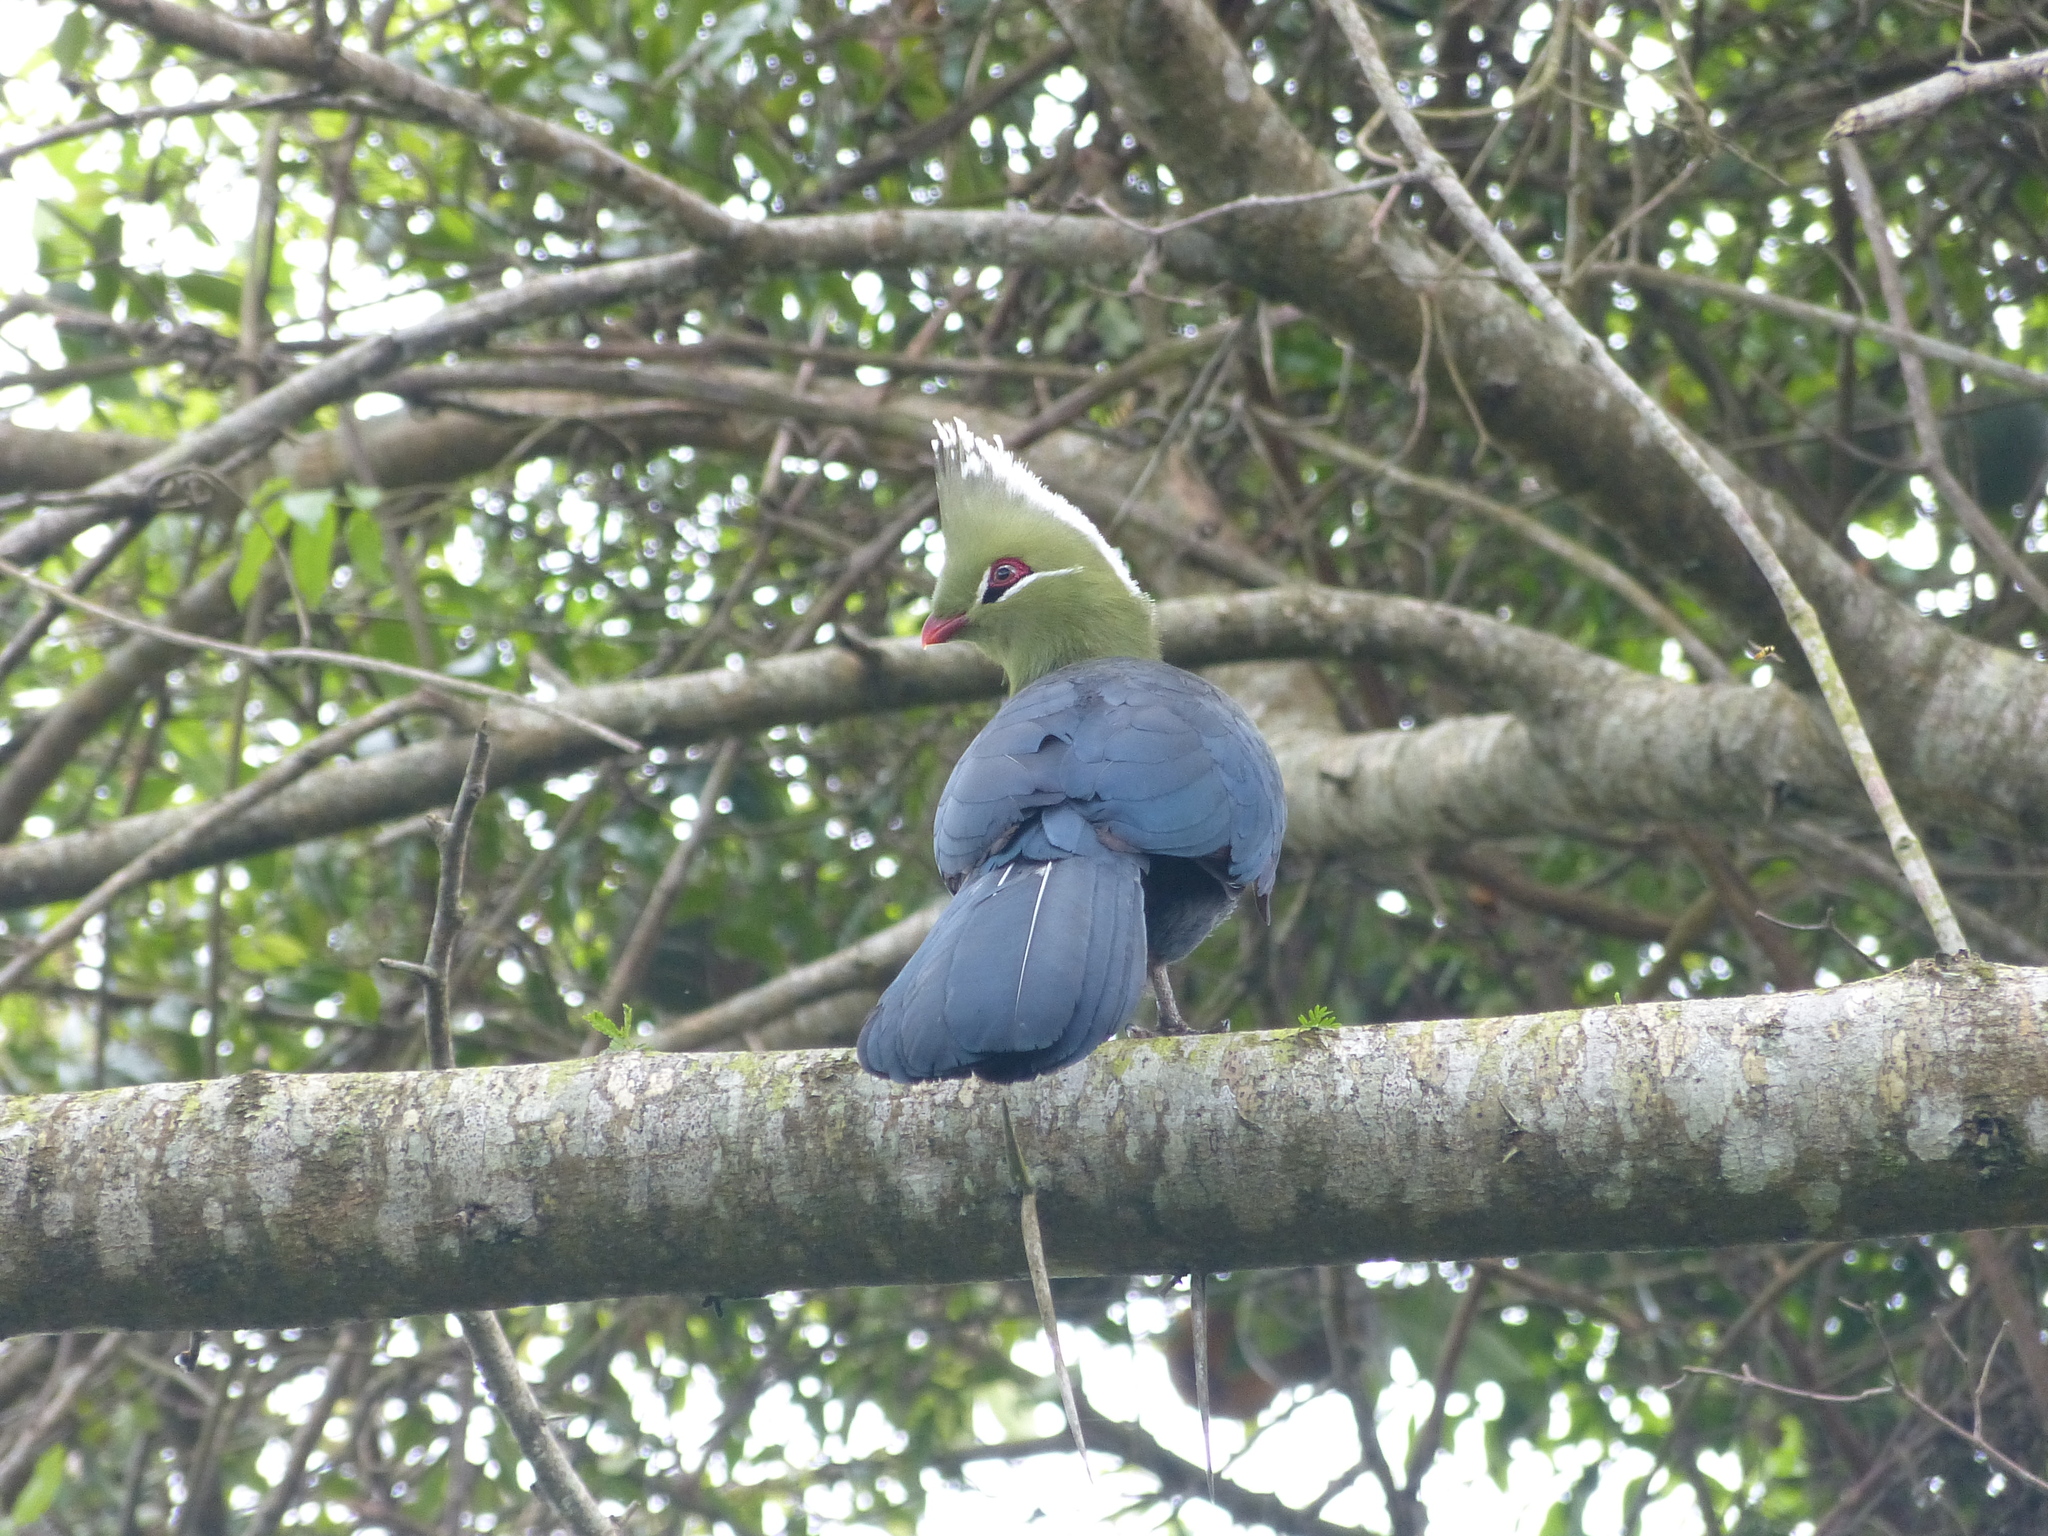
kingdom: Animalia
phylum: Chordata
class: Aves
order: Musophagiformes
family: Musophagidae
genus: Tauraco
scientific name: Tauraco livingstonii
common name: Livingstone's turaco
